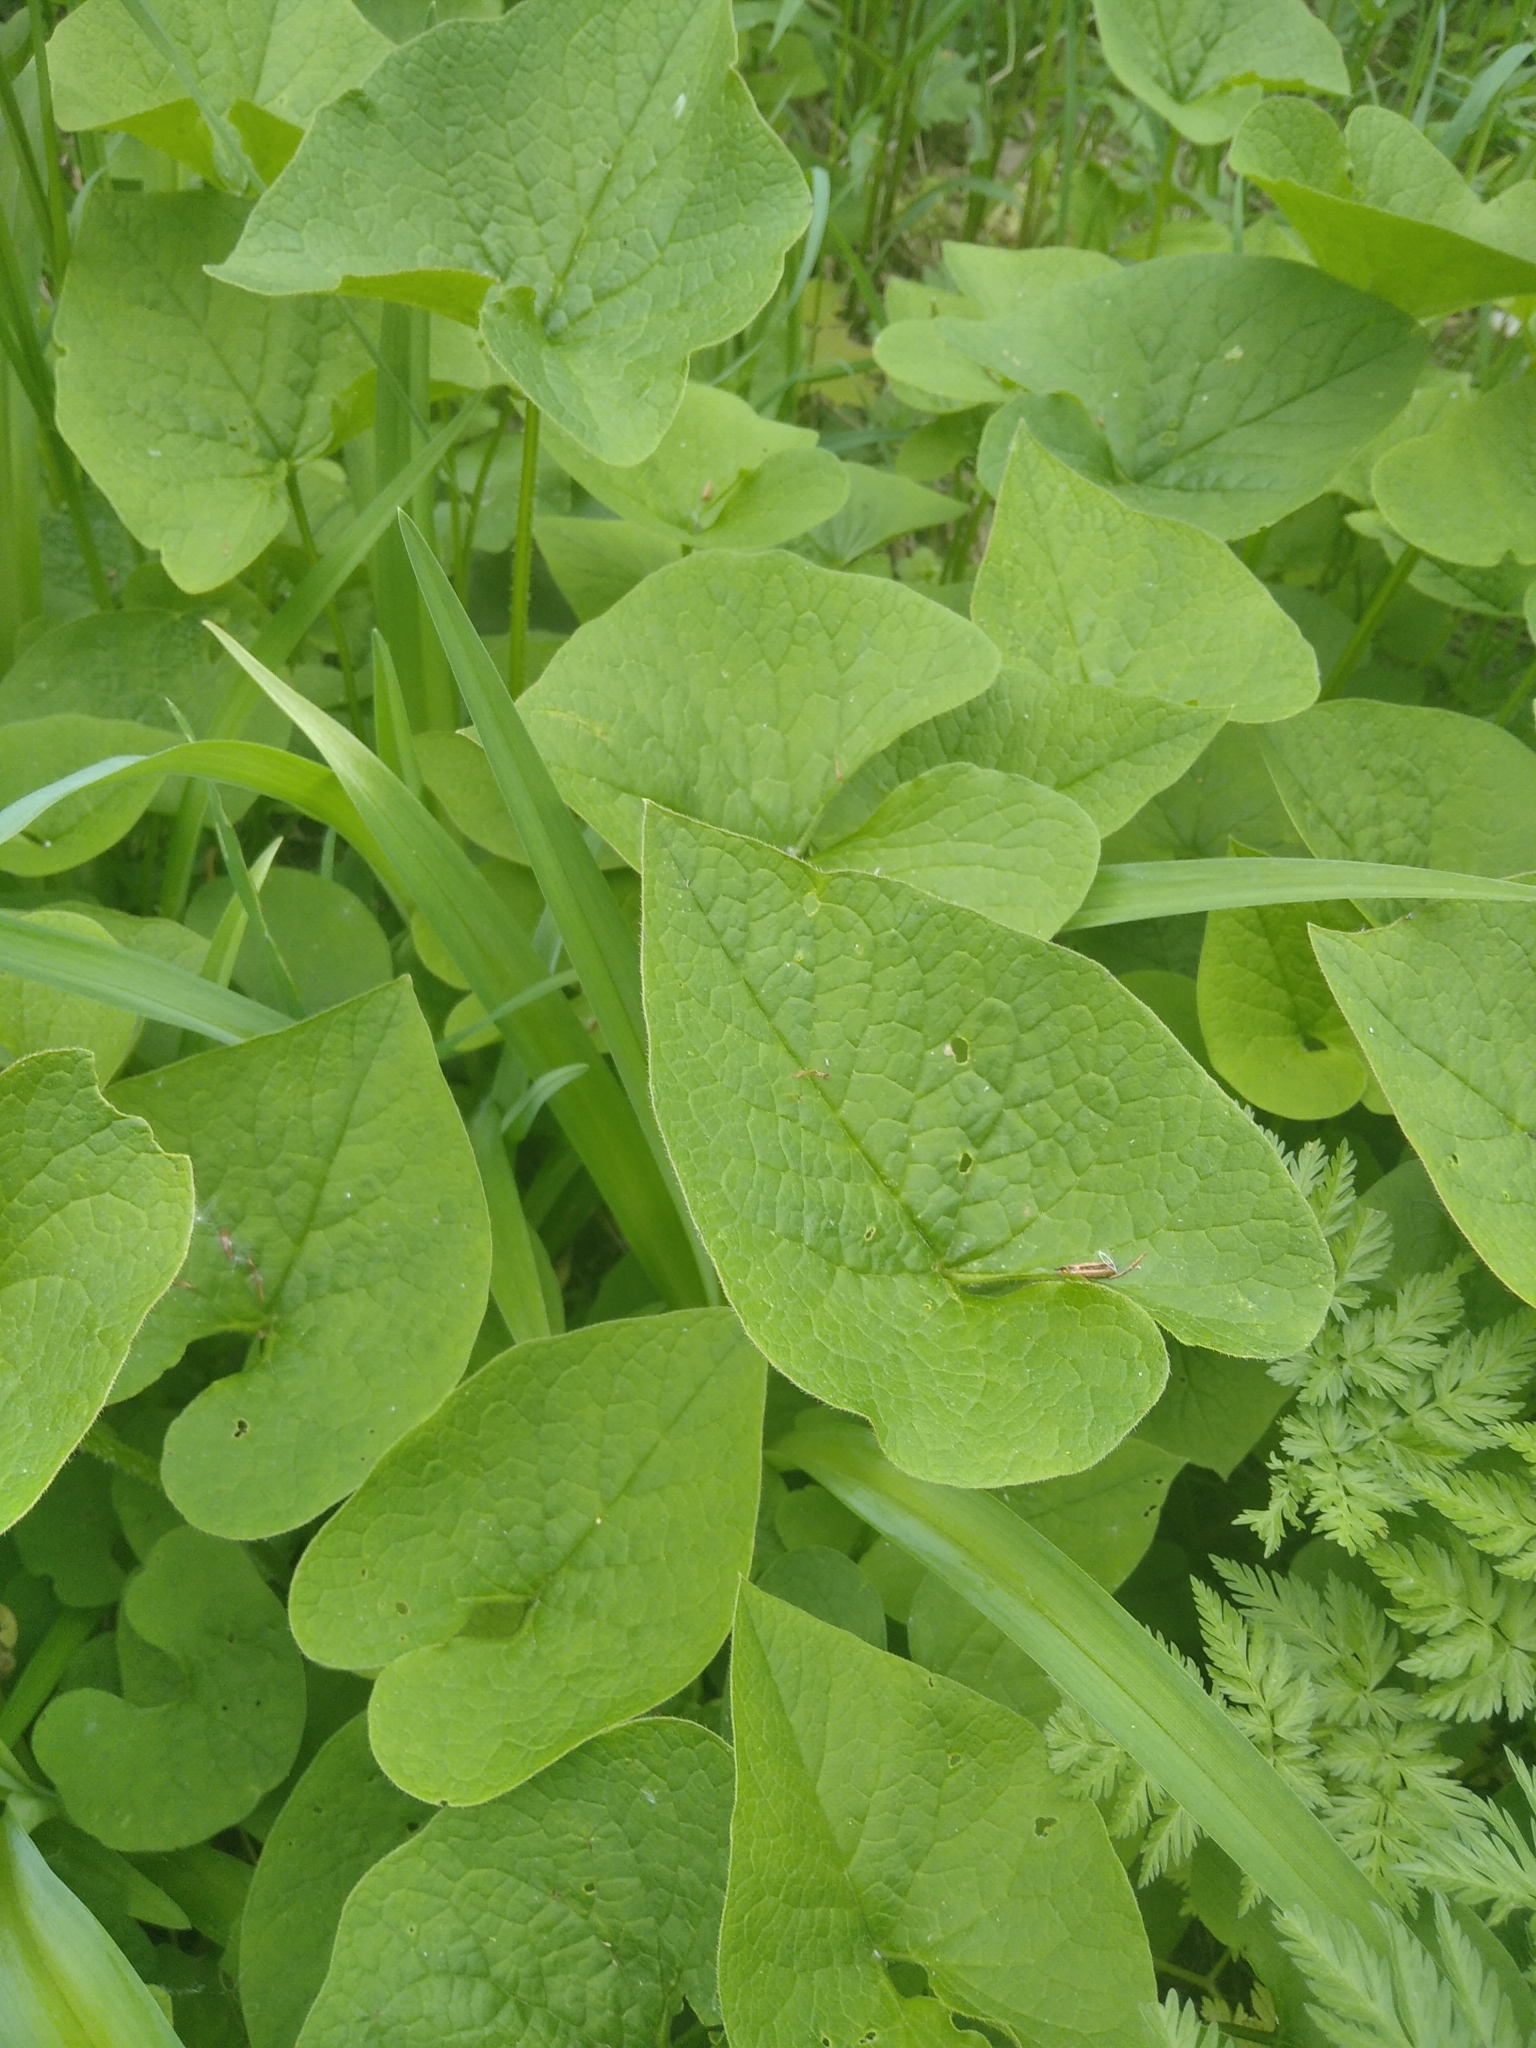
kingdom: Plantae
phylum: Tracheophyta
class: Magnoliopsida
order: Boraginales
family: Boraginaceae
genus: Brunnera
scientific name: Brunnera sibirica
